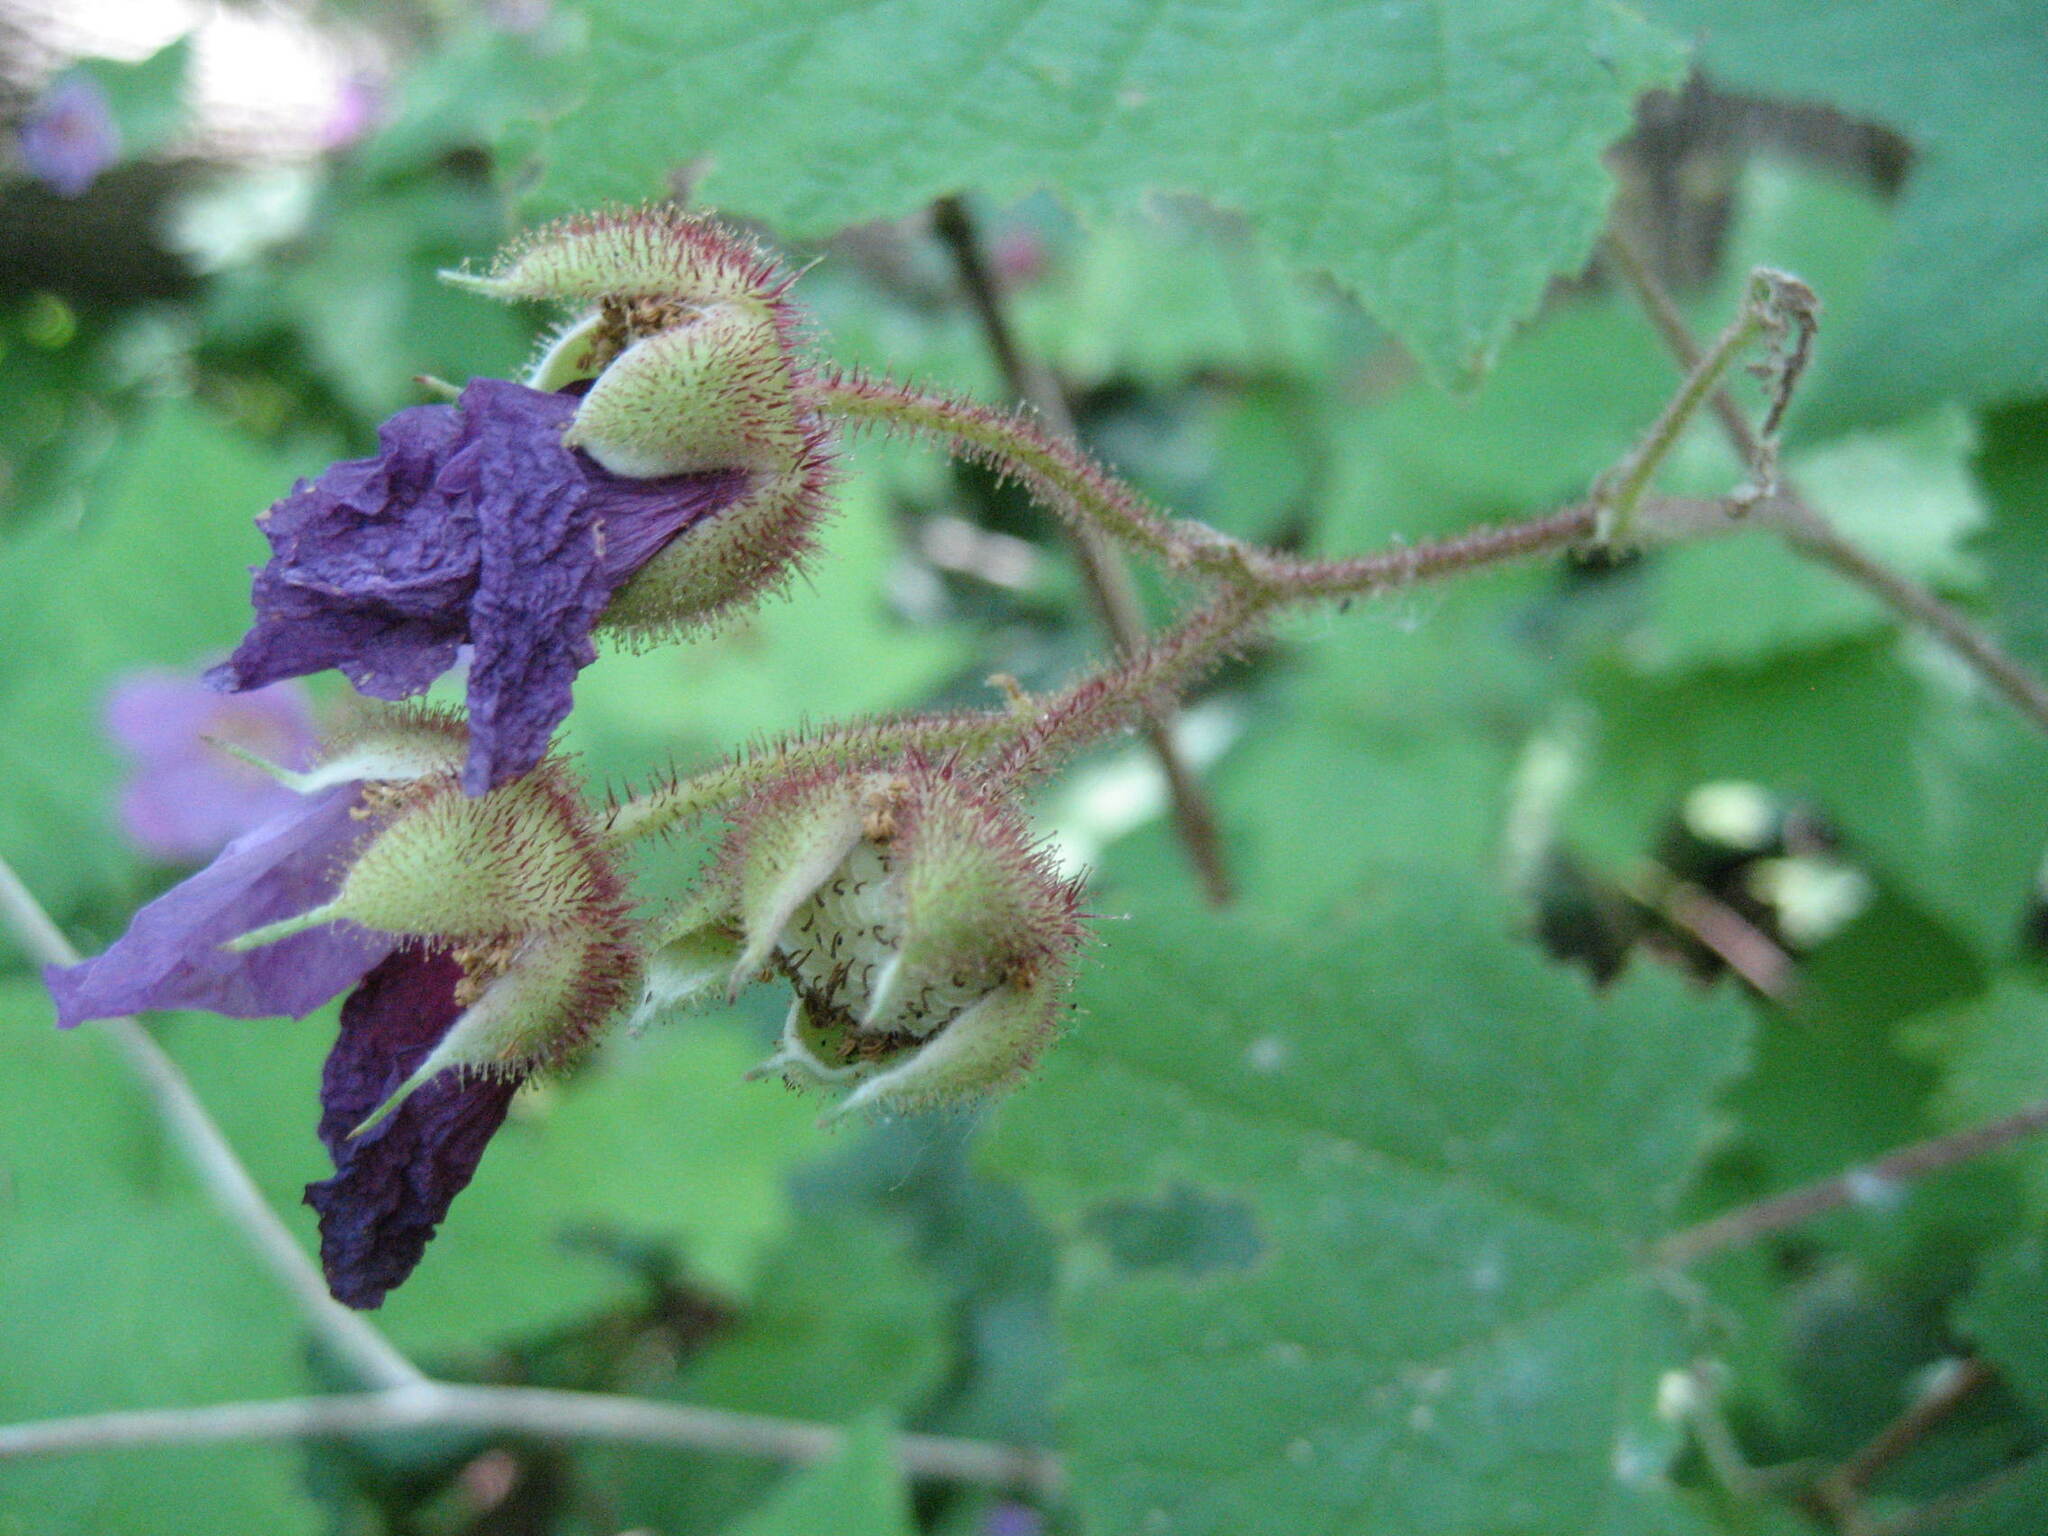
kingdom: Plantae
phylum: Tracheophyta
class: Magnoliopsida
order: Rosales
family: Rosaceae
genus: Rubus
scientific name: Rubus odoratus
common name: Purple-flowered raspberry
